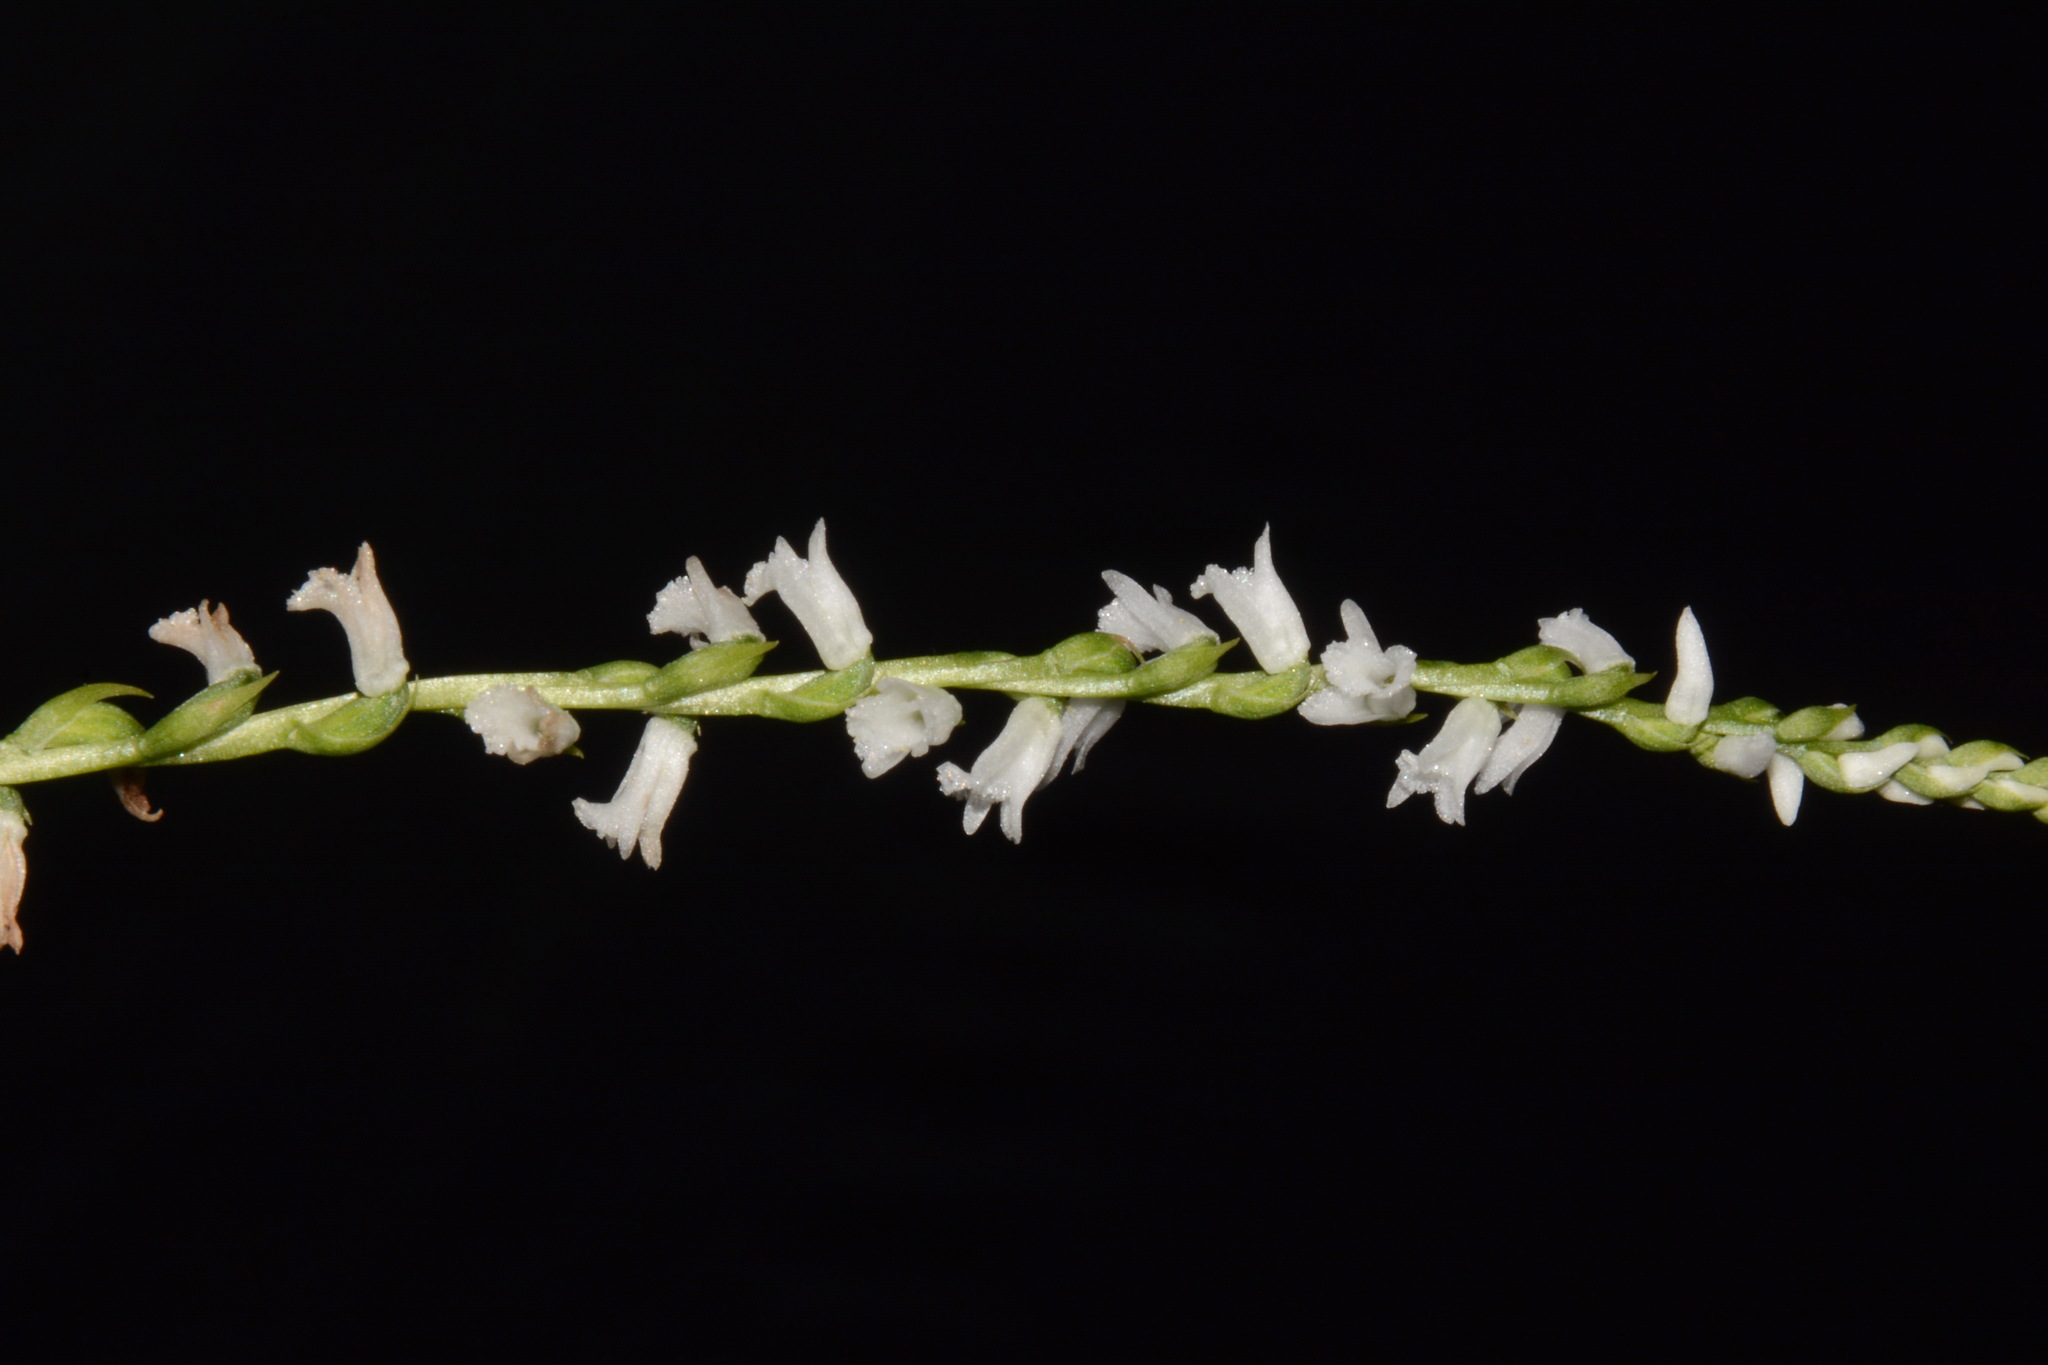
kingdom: Plantae
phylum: Tracheophyta
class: Liliopsida
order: Asparagales
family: Orchidaceae
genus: Spiranthes
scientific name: Spiranthes tuberosa
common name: Little ladies'-tresses
